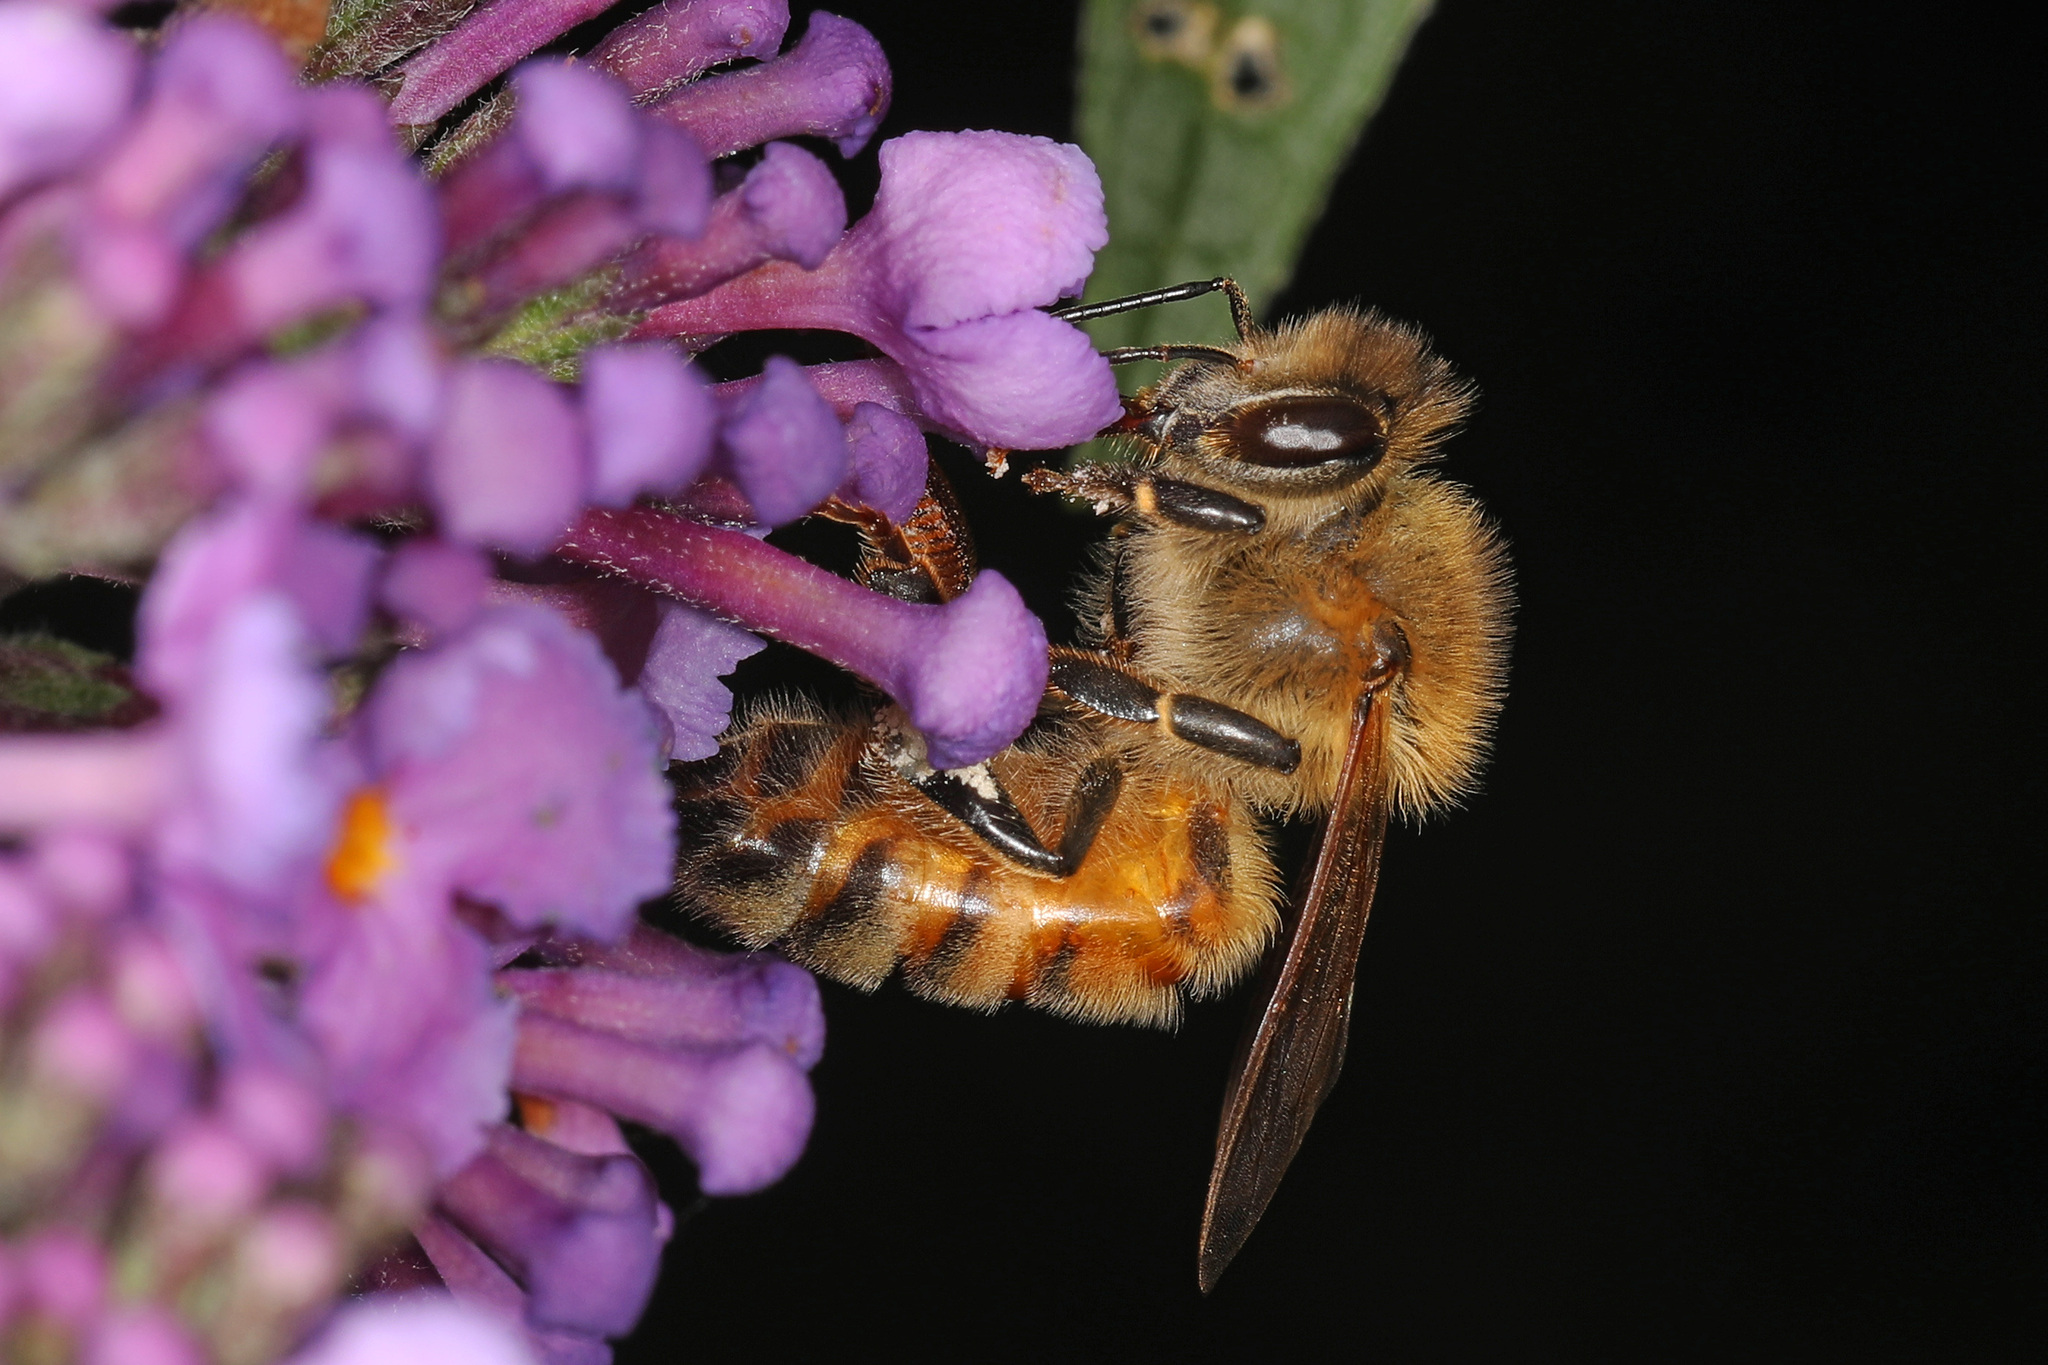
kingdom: Animalia
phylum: Arthropoda
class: Insecta
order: Hymenoptera
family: Apidae
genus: Apis
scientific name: Apis mellifera
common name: Honey bee
